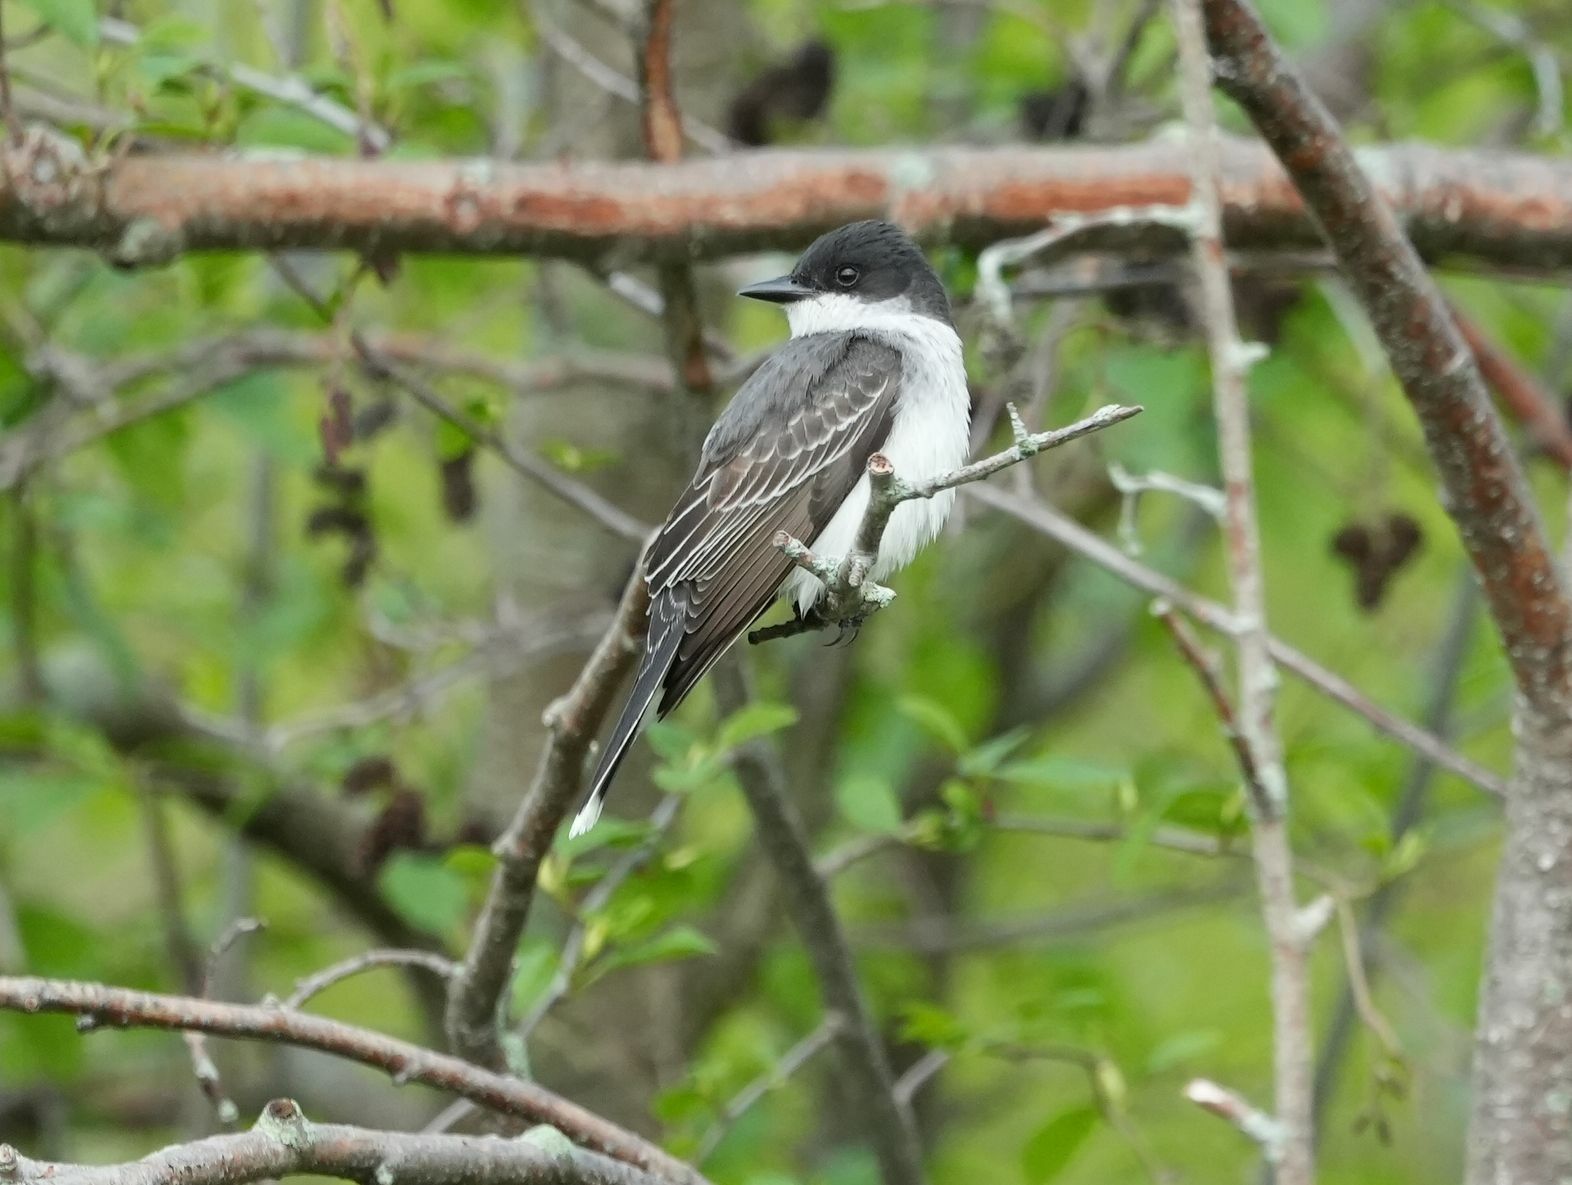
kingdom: Animalia
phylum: Chordata
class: Aves
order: Passeriformes
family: Tyrannidae
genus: Tyrannus
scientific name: Tyrannus tyrannus
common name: Eastern kingbird
